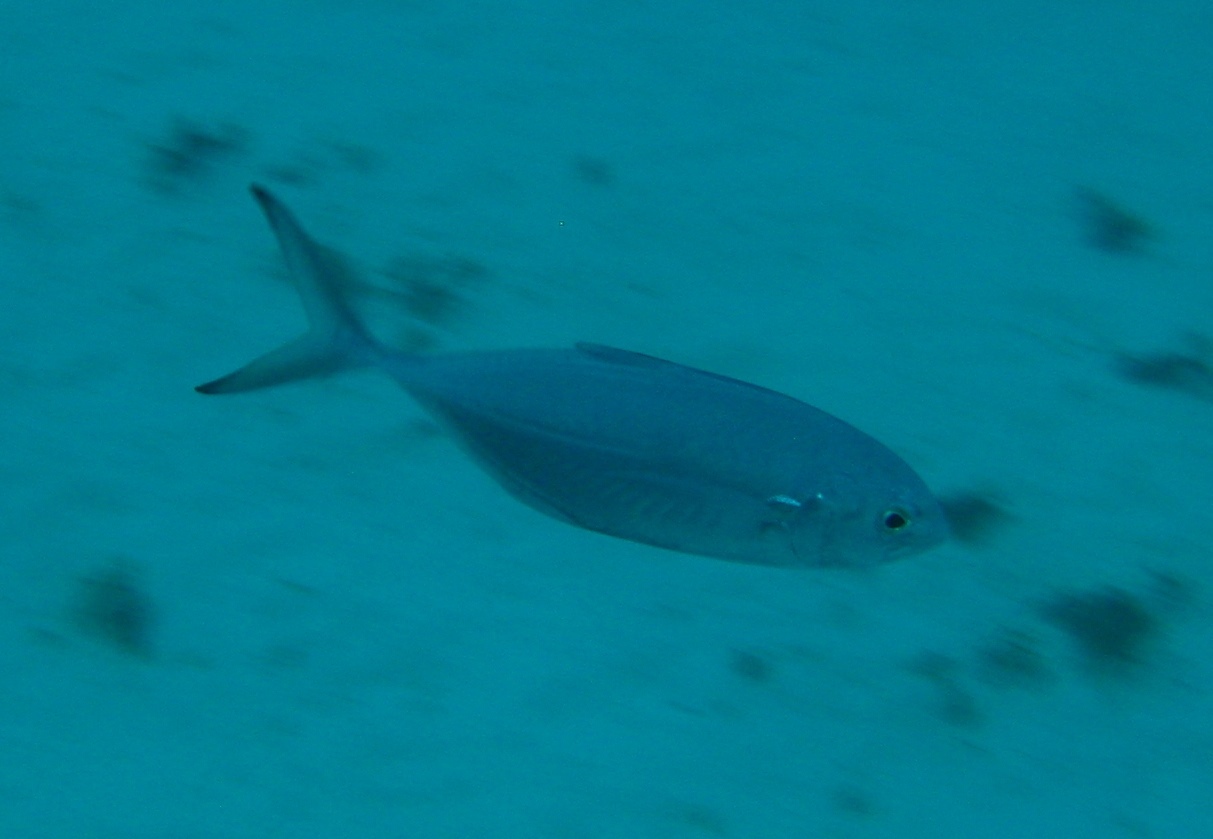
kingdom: Animalia
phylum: Chordata
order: Perciformes
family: Carangidae
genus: Caranx
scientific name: Caranx crysos
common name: Blue runner
